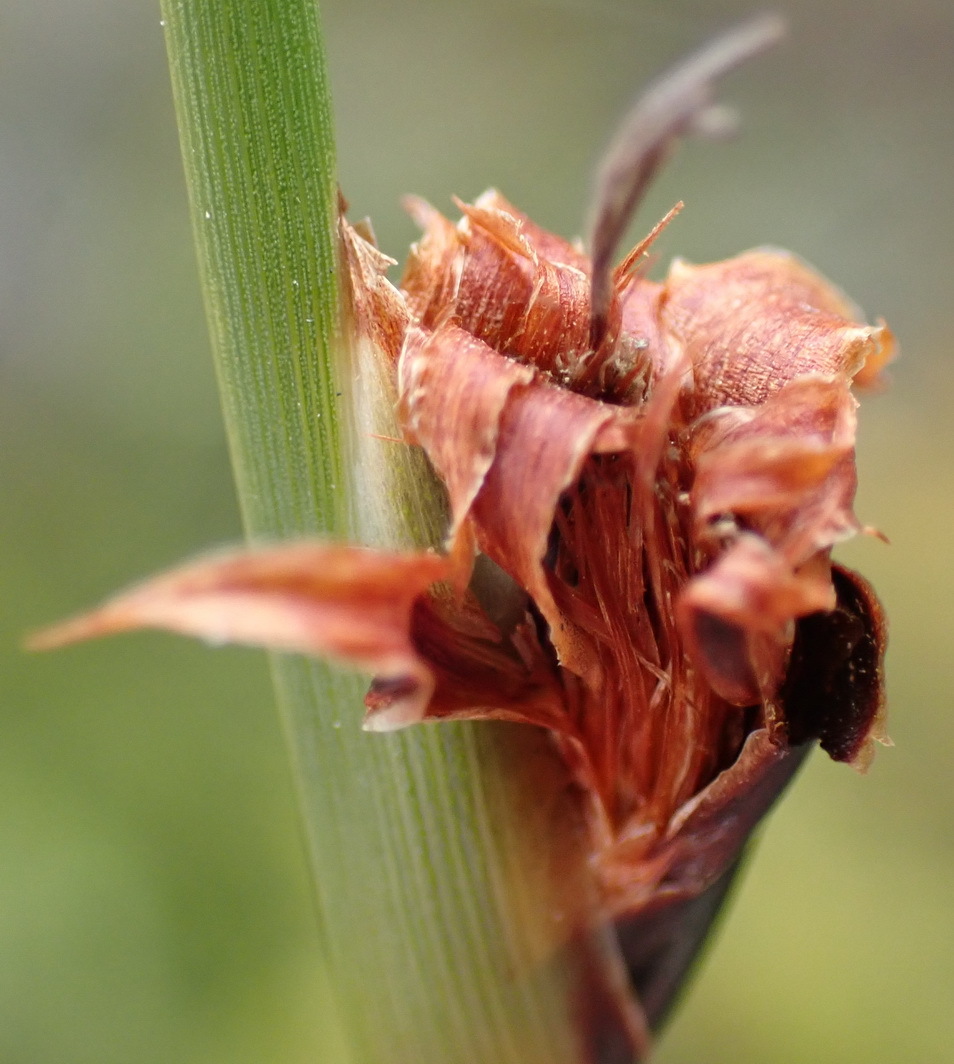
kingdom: Plantae
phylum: Tracheophyta
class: Liliopsida
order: Poales
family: Cyperaceae
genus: Chrysitrix
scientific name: Chrysitrix capensis
